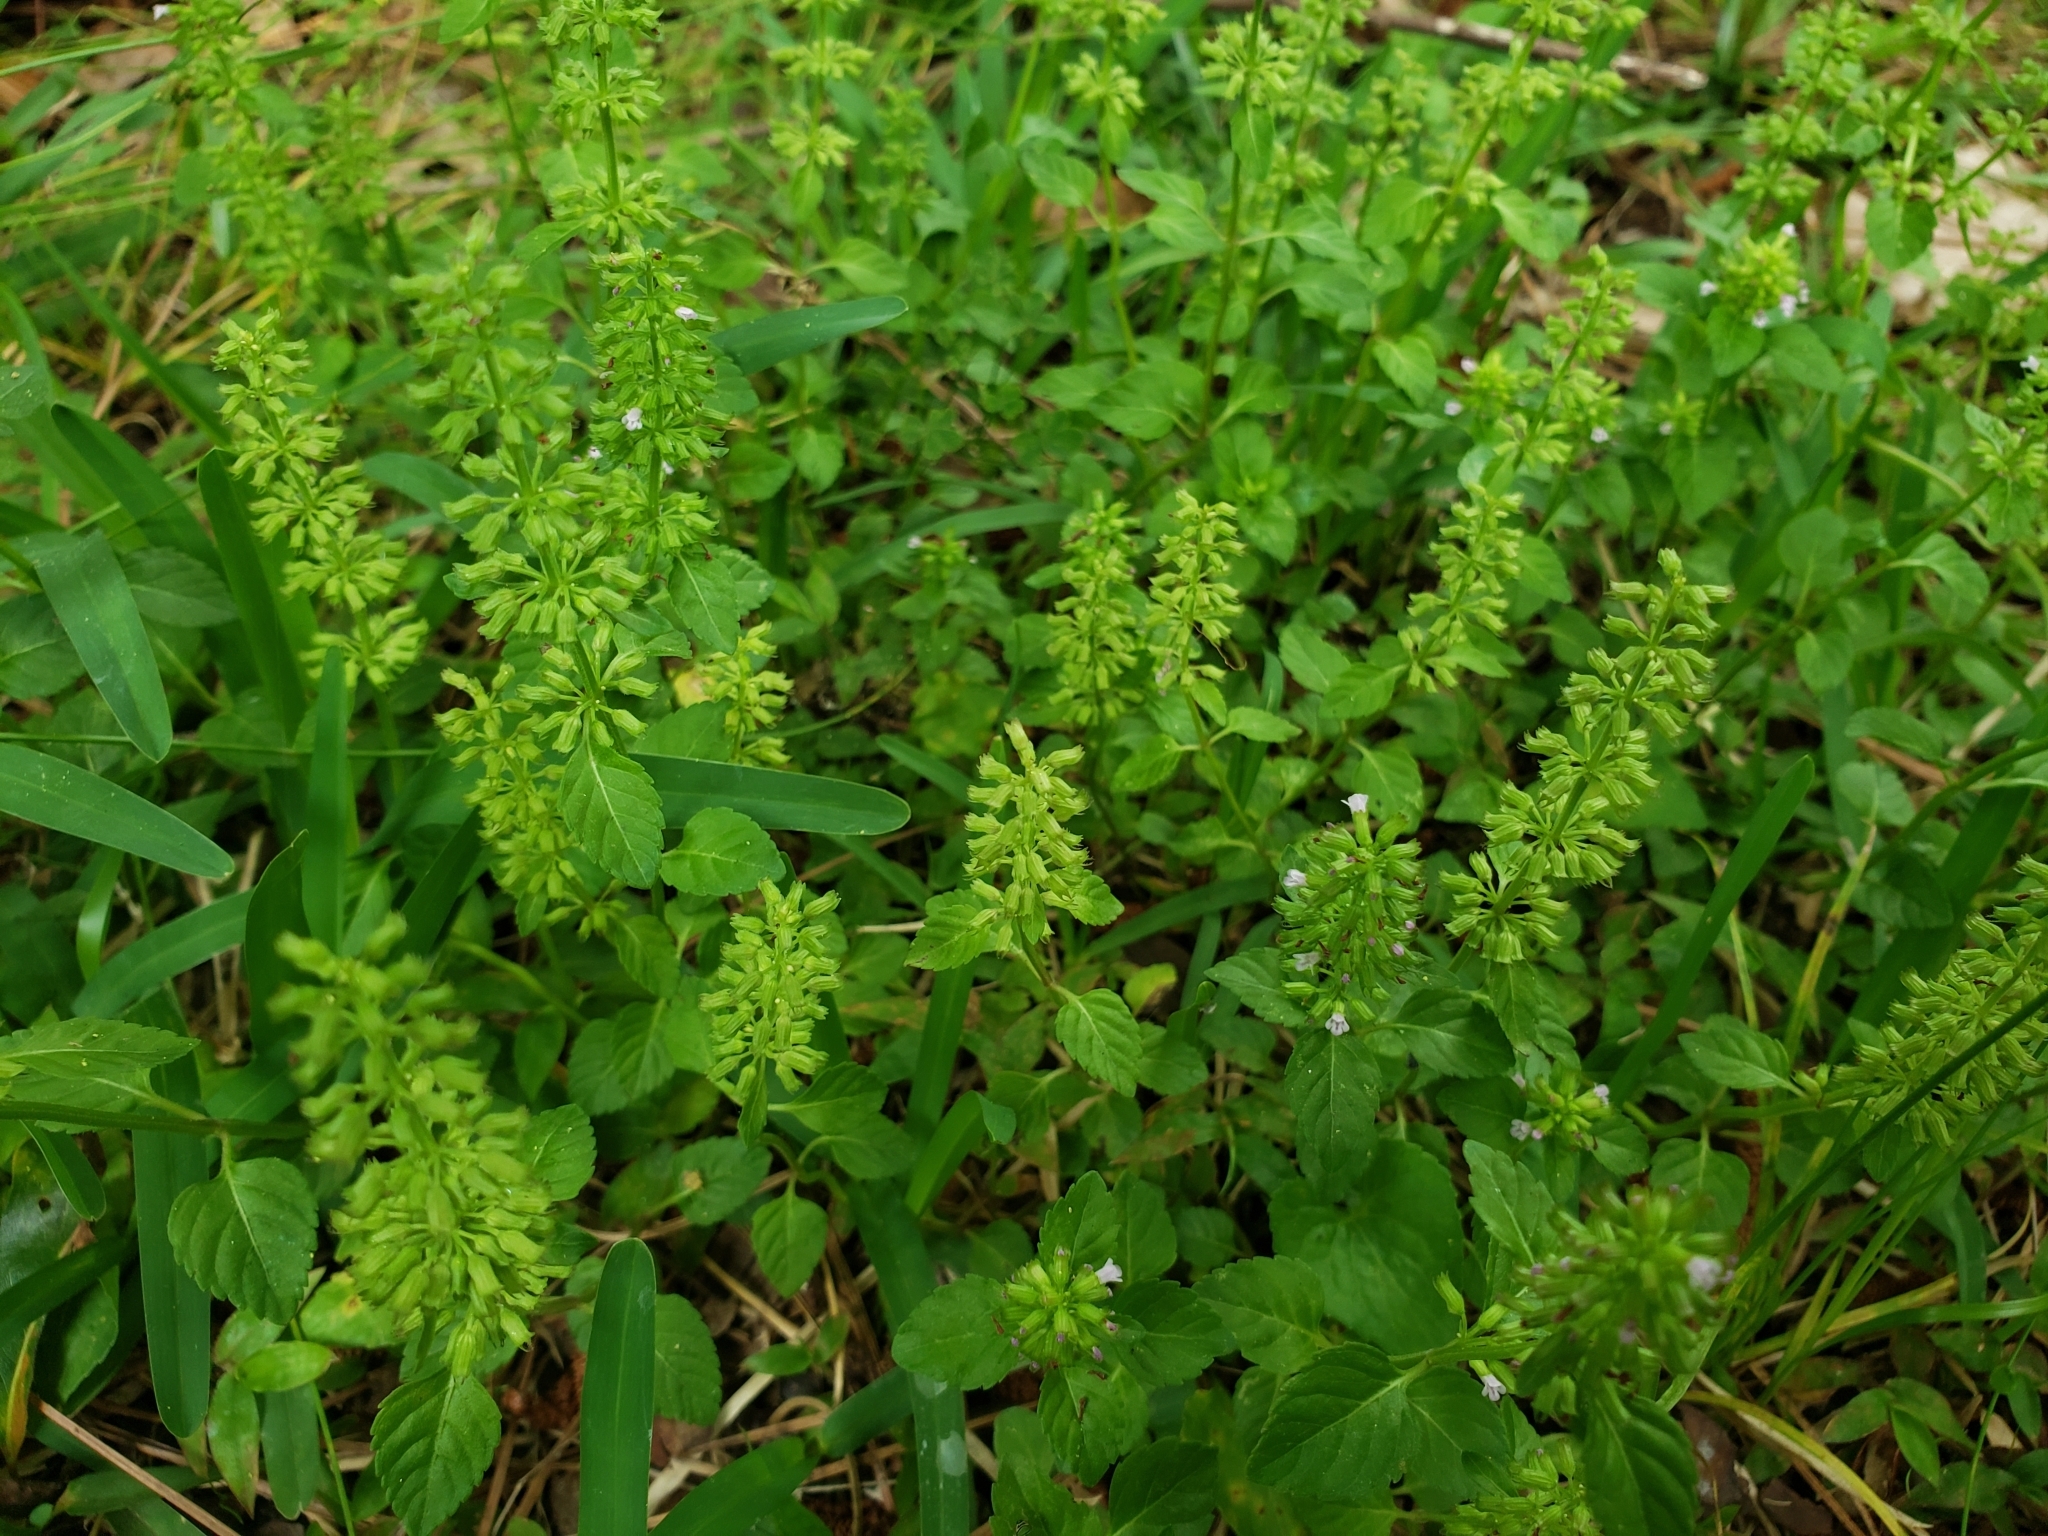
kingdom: Plantae
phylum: Tracheophyta
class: Magnoliopsida
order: Lamiales
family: Lamiaceae
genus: Clinopodium
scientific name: Clinopodium gracile
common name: Slender wild basil
